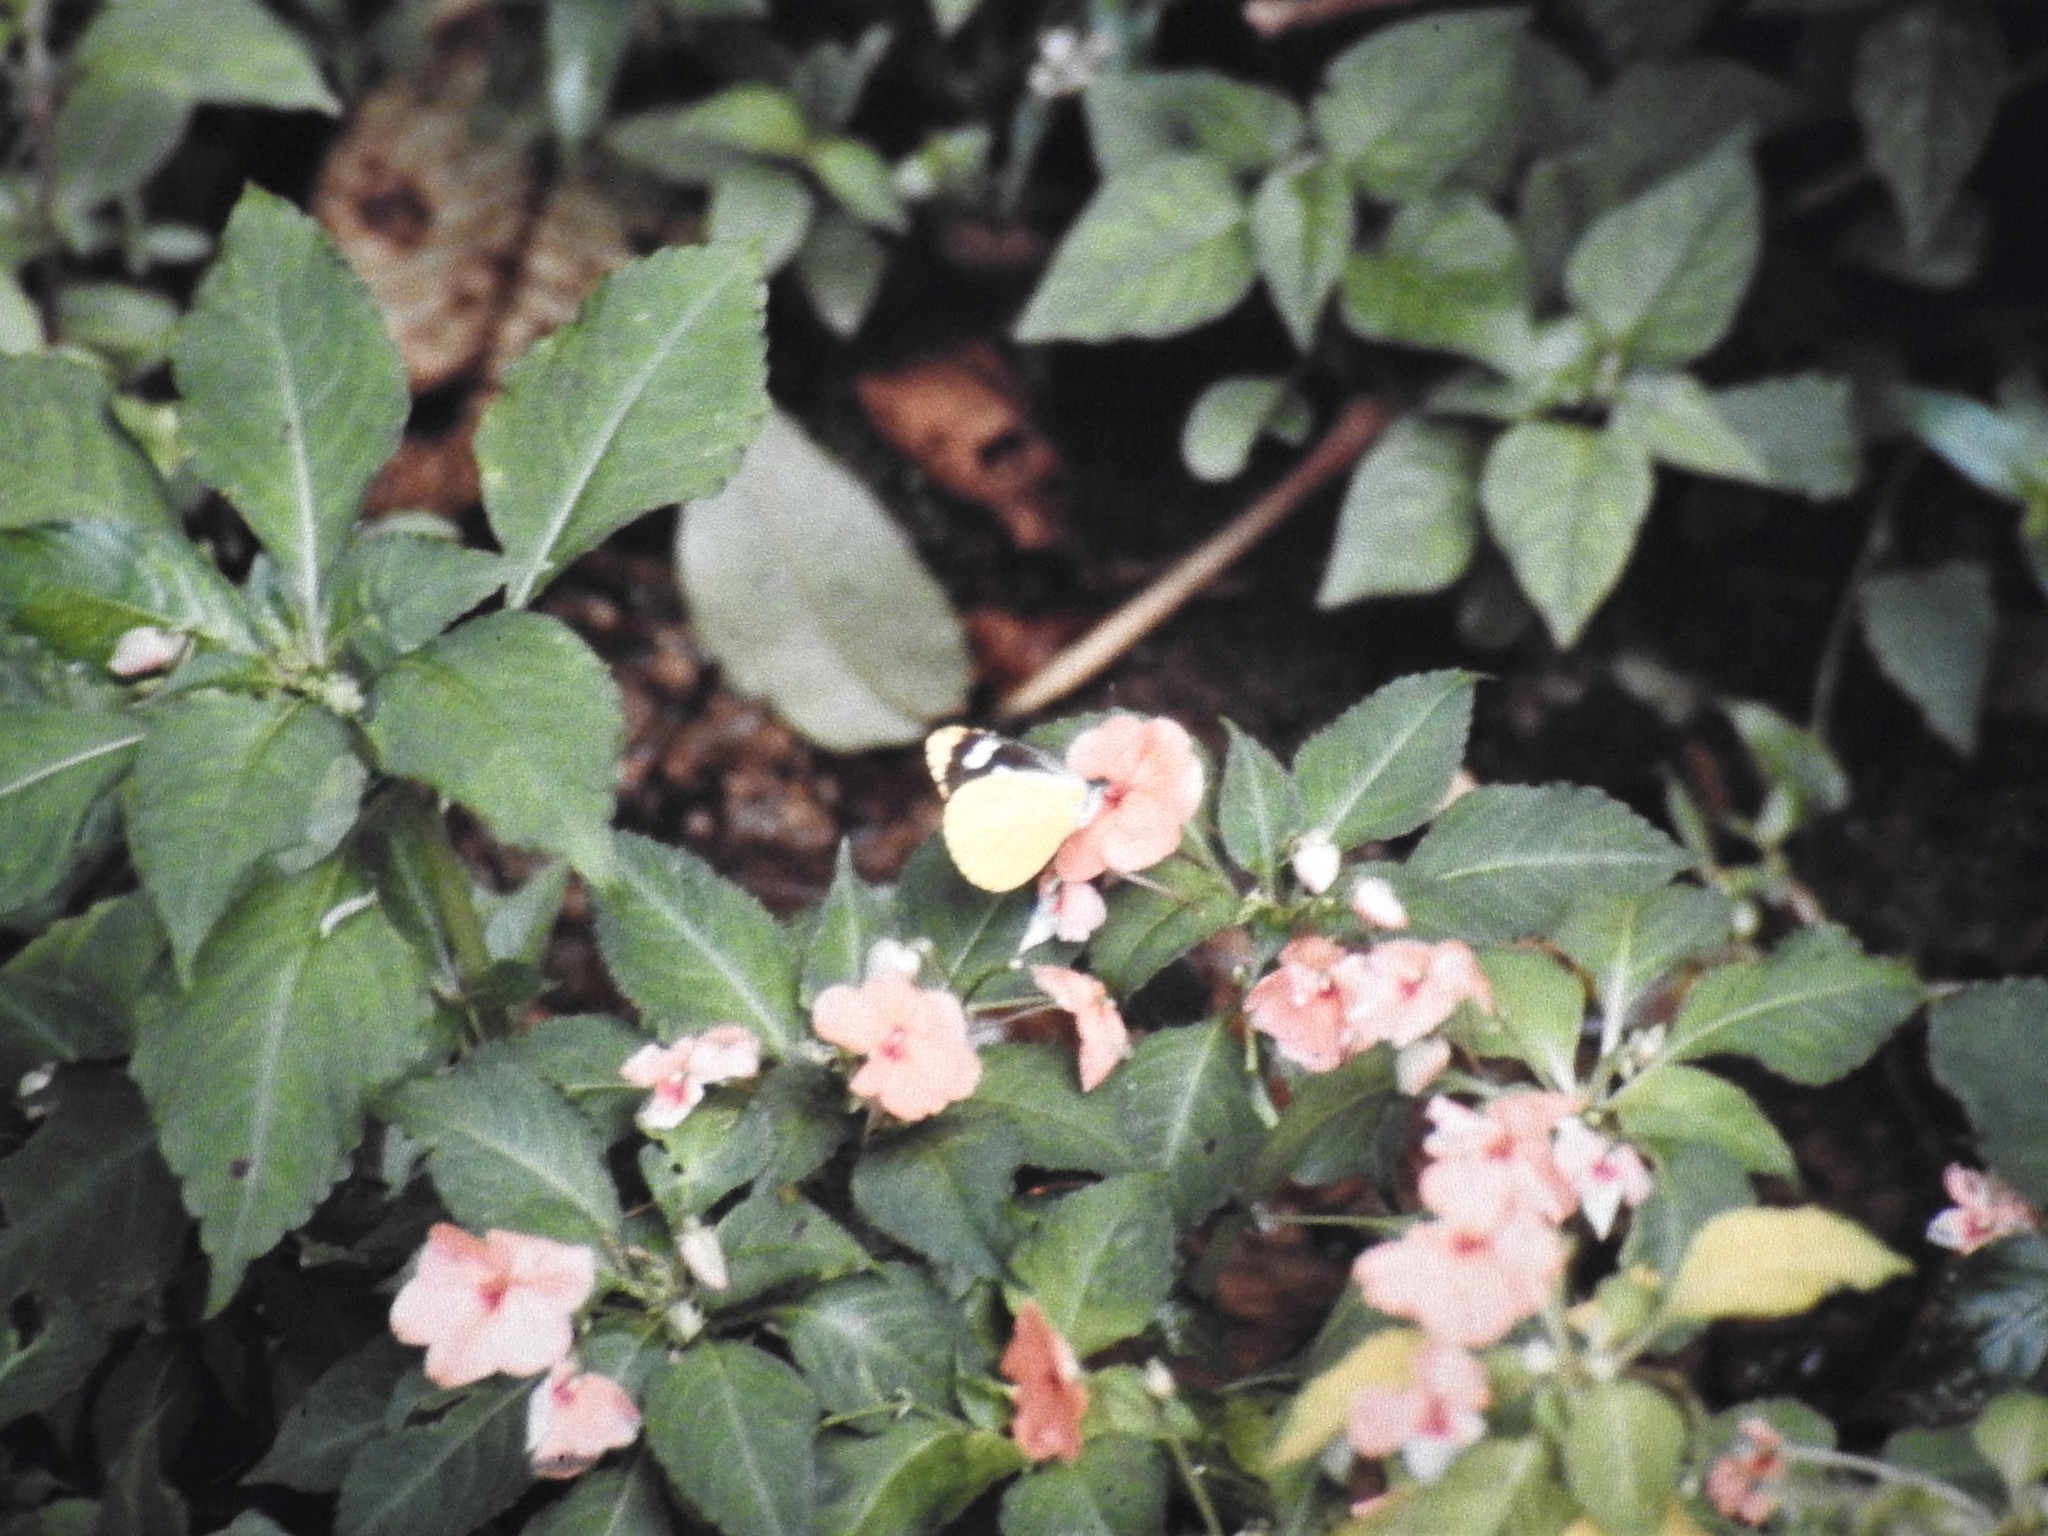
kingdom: Animalia
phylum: Arthropoda
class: Insecta
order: Lepidoptera
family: Pieridae
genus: Leptophobia
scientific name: Leptophobia caesia
